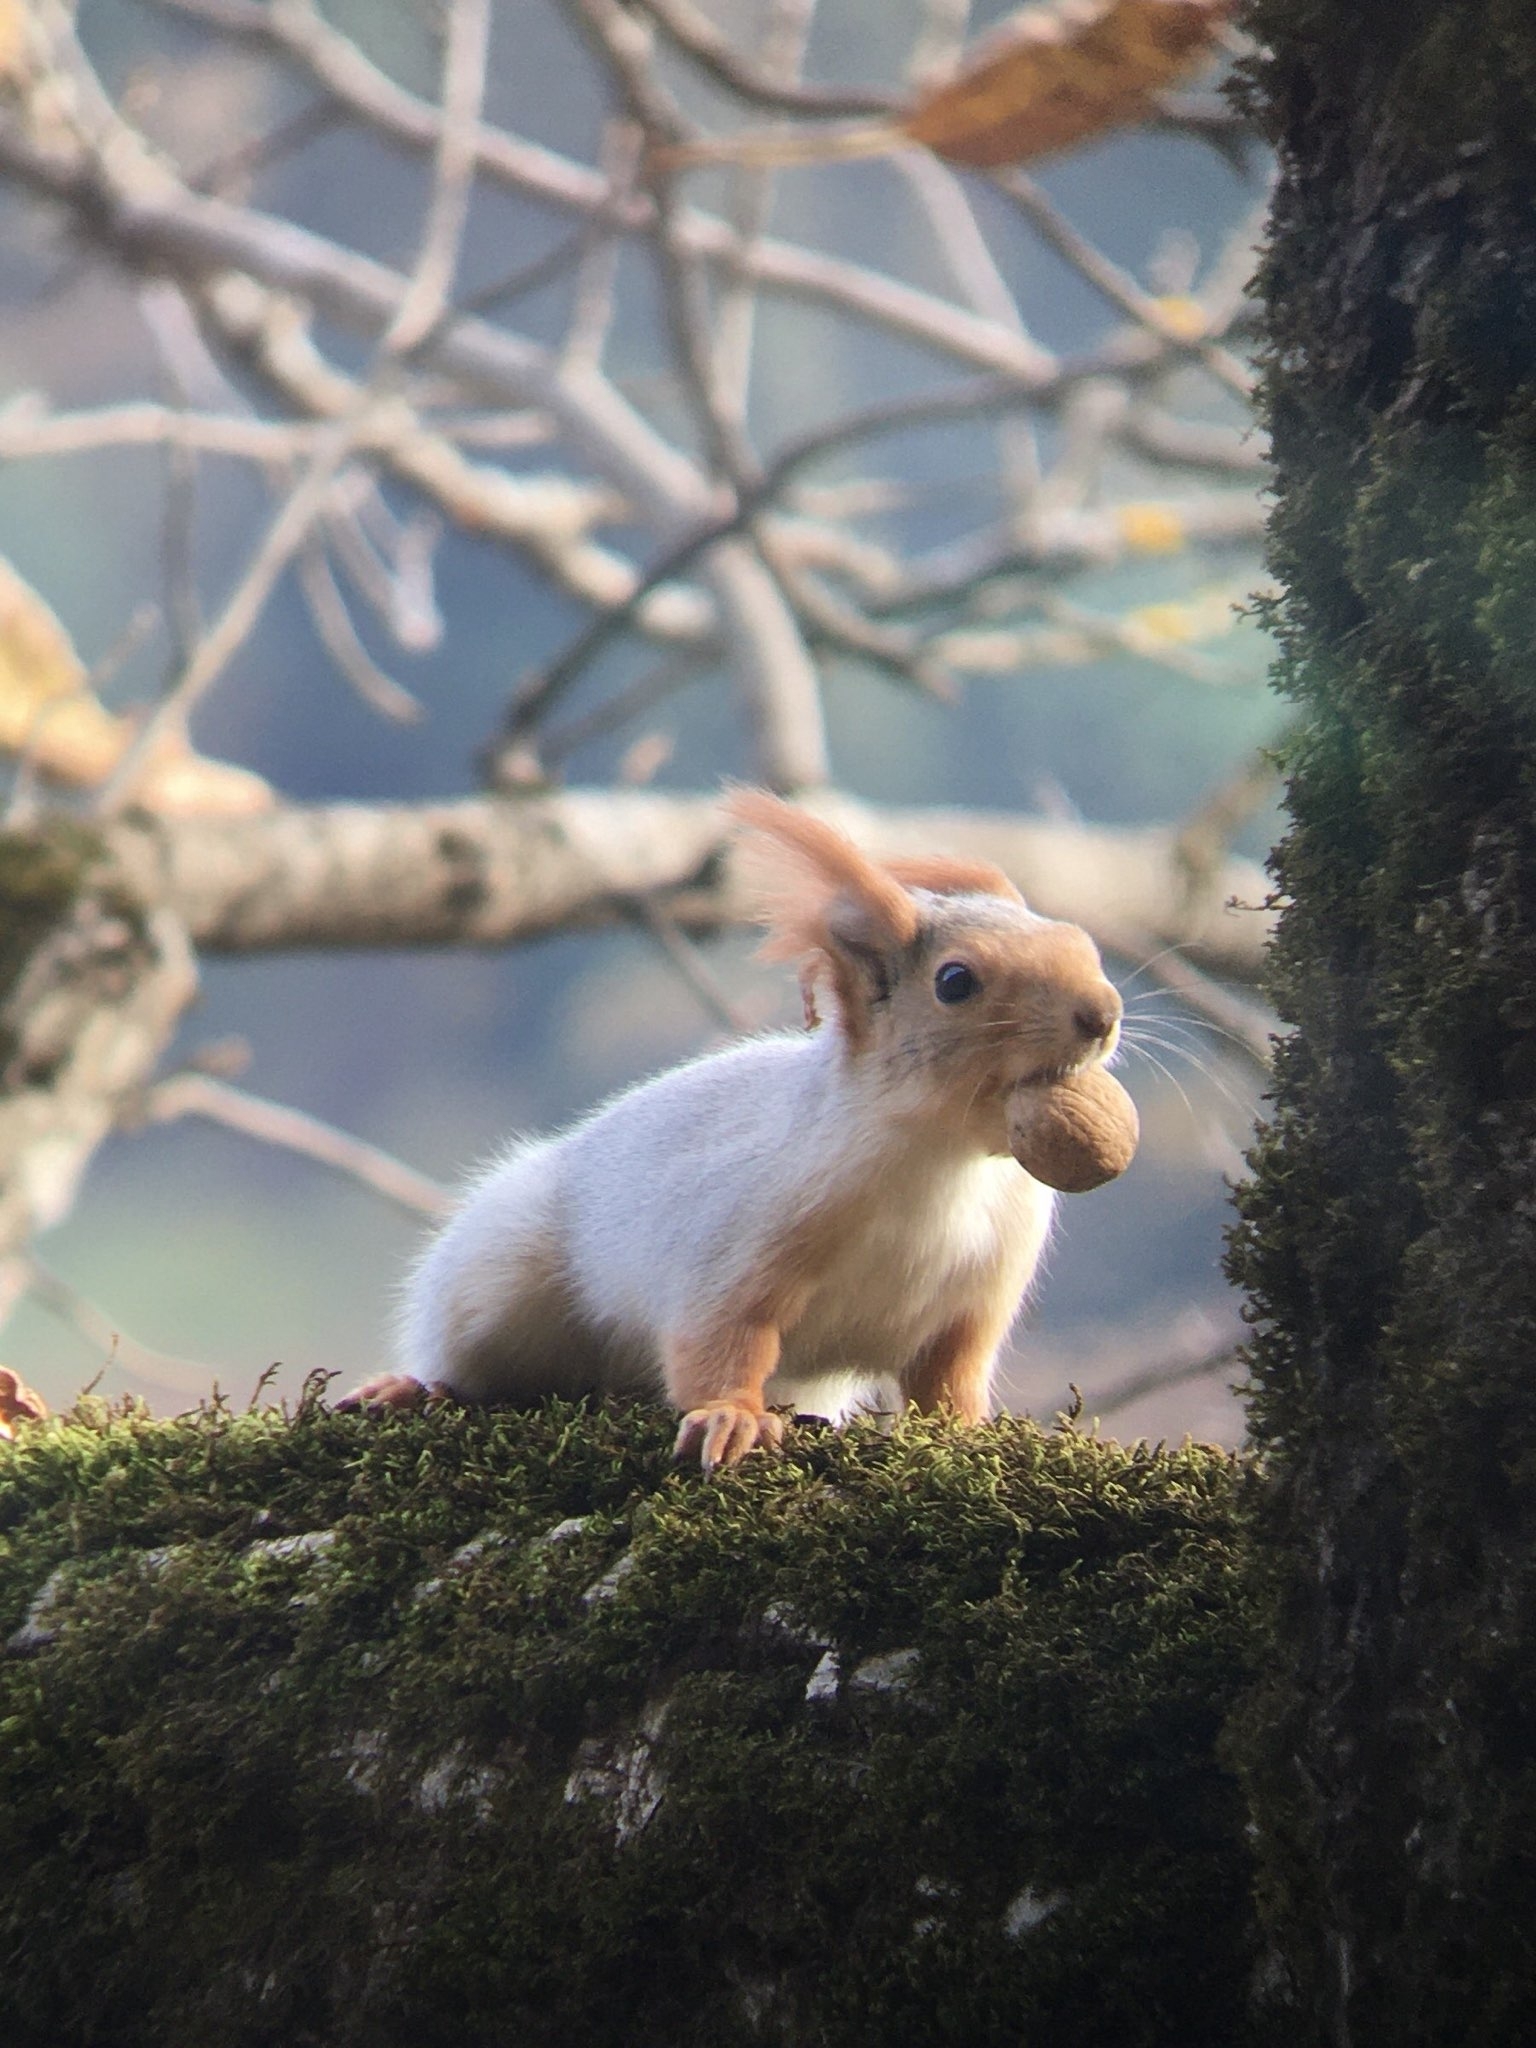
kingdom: Animalia
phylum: Chordata
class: Mammalia
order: Rodentia
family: Sciuridae
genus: Sciurus
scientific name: Sciurus vulgaris
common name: Eurasian red squirrel
